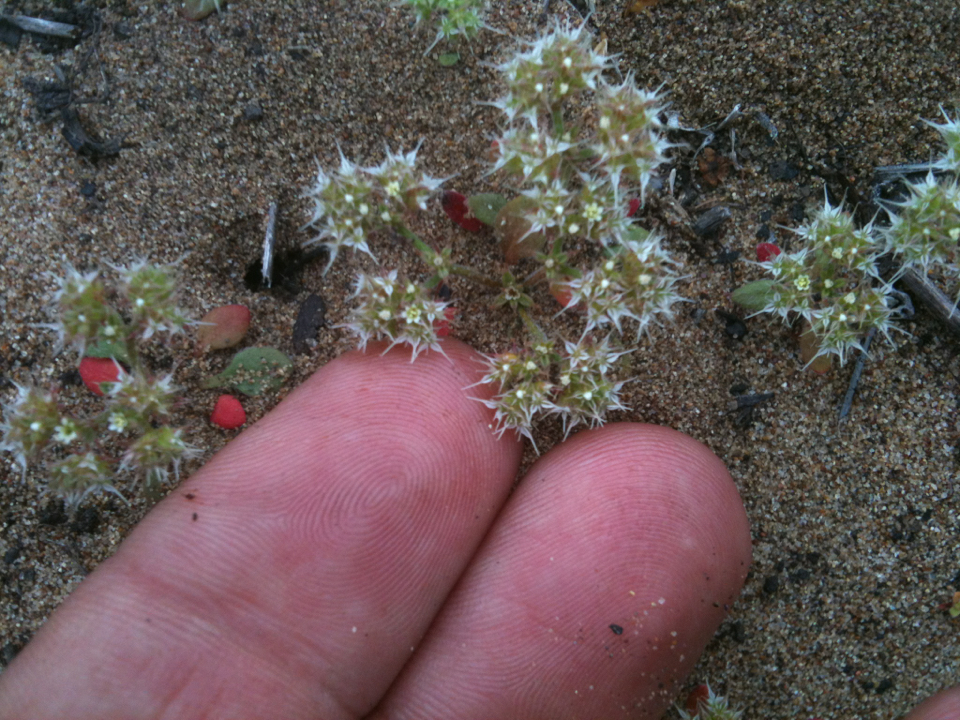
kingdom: Plantae
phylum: Tracheophyta
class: Magnoliopsida
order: Caryophyllales
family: Polygonaceae
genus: Chorizanthe
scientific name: Chorizanthe diffusa
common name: Diffuse spineflower
